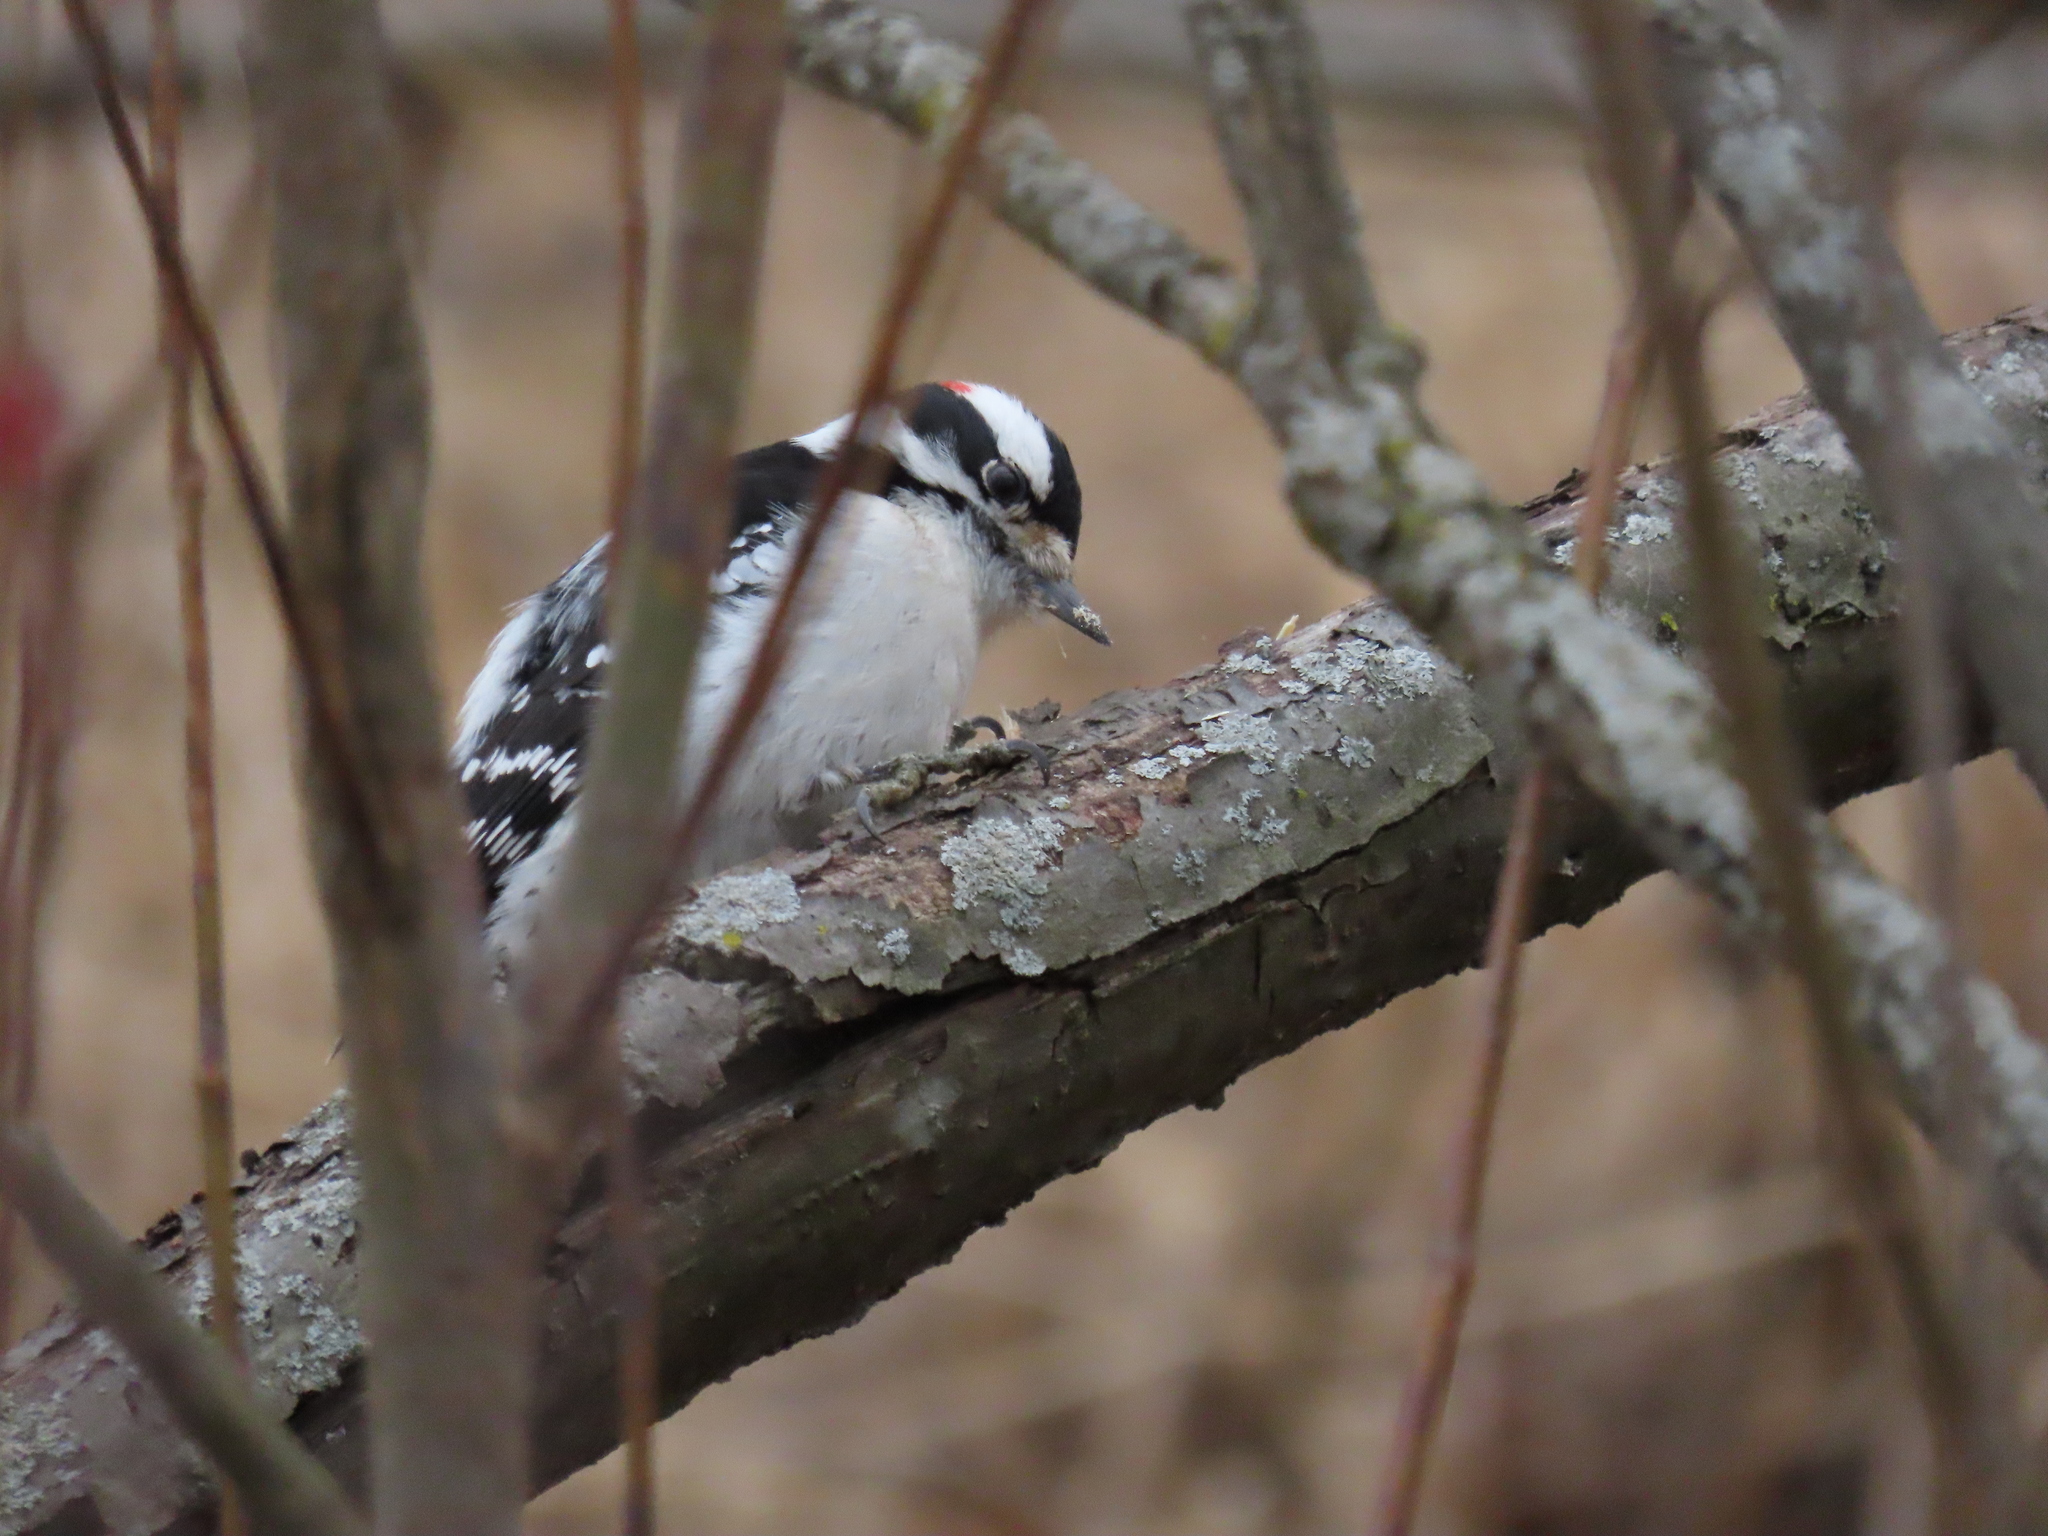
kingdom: Animalia
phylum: Chordata
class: Aves
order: Piciformes
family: Picidae
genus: Dryobates
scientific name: Dryobates pubescens
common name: Downy woodpecker
